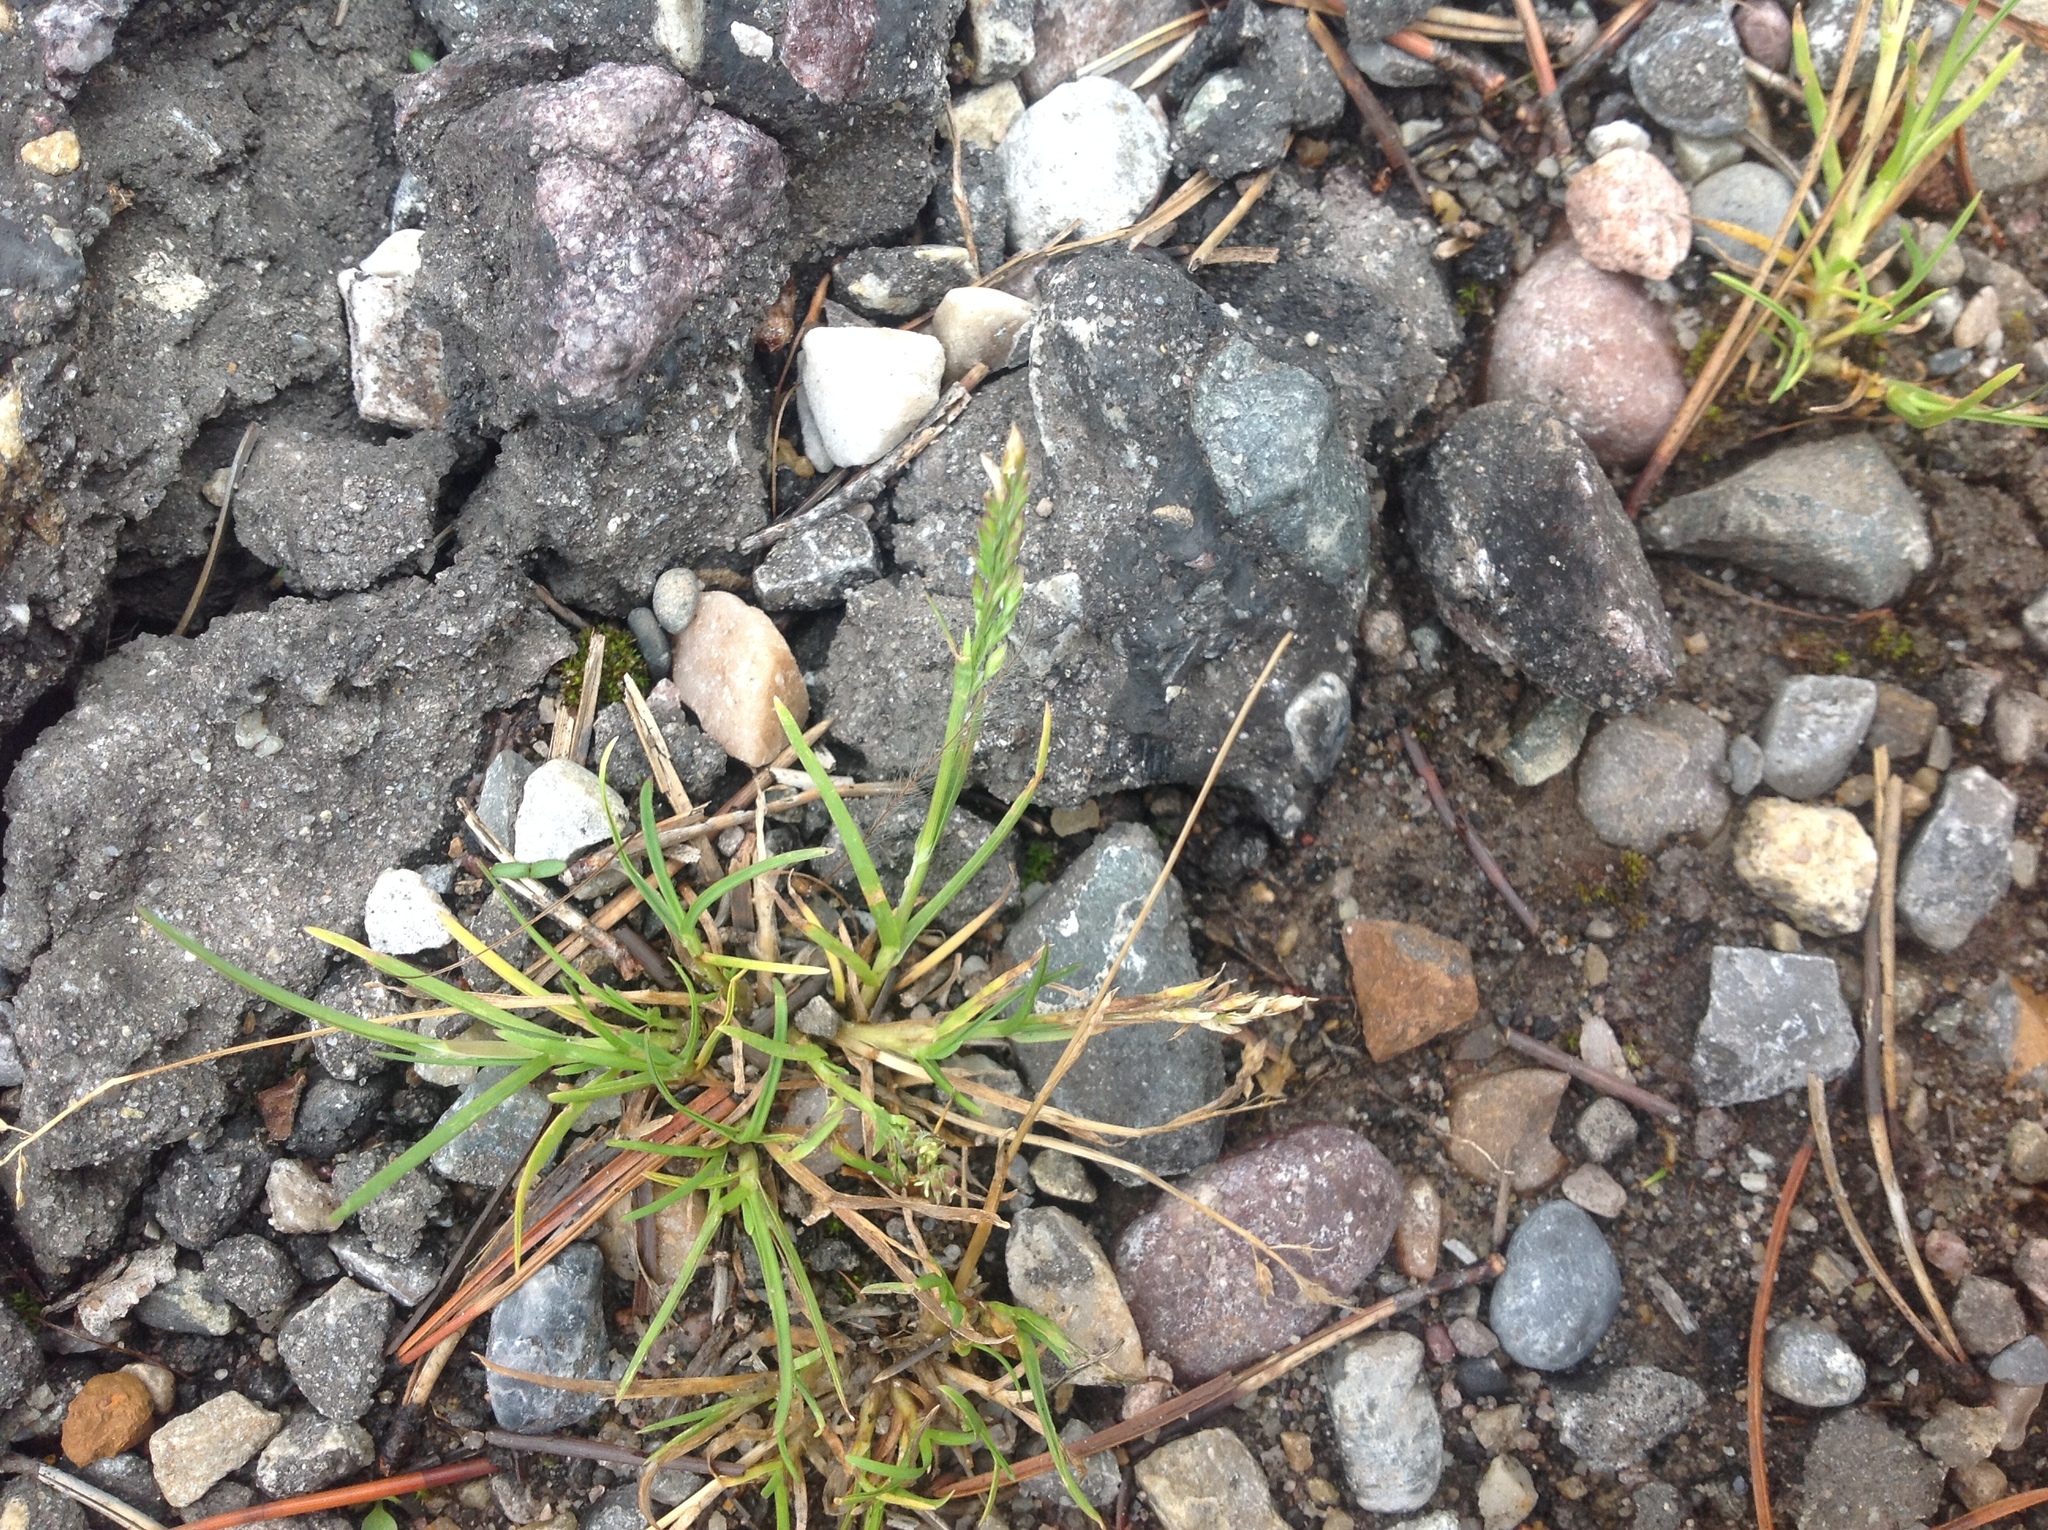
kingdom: Plantae
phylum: Tracheophyta
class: Liliopsida
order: Poales
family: Poaceae
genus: Poa
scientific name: Poa annua
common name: Annual bluegrass
